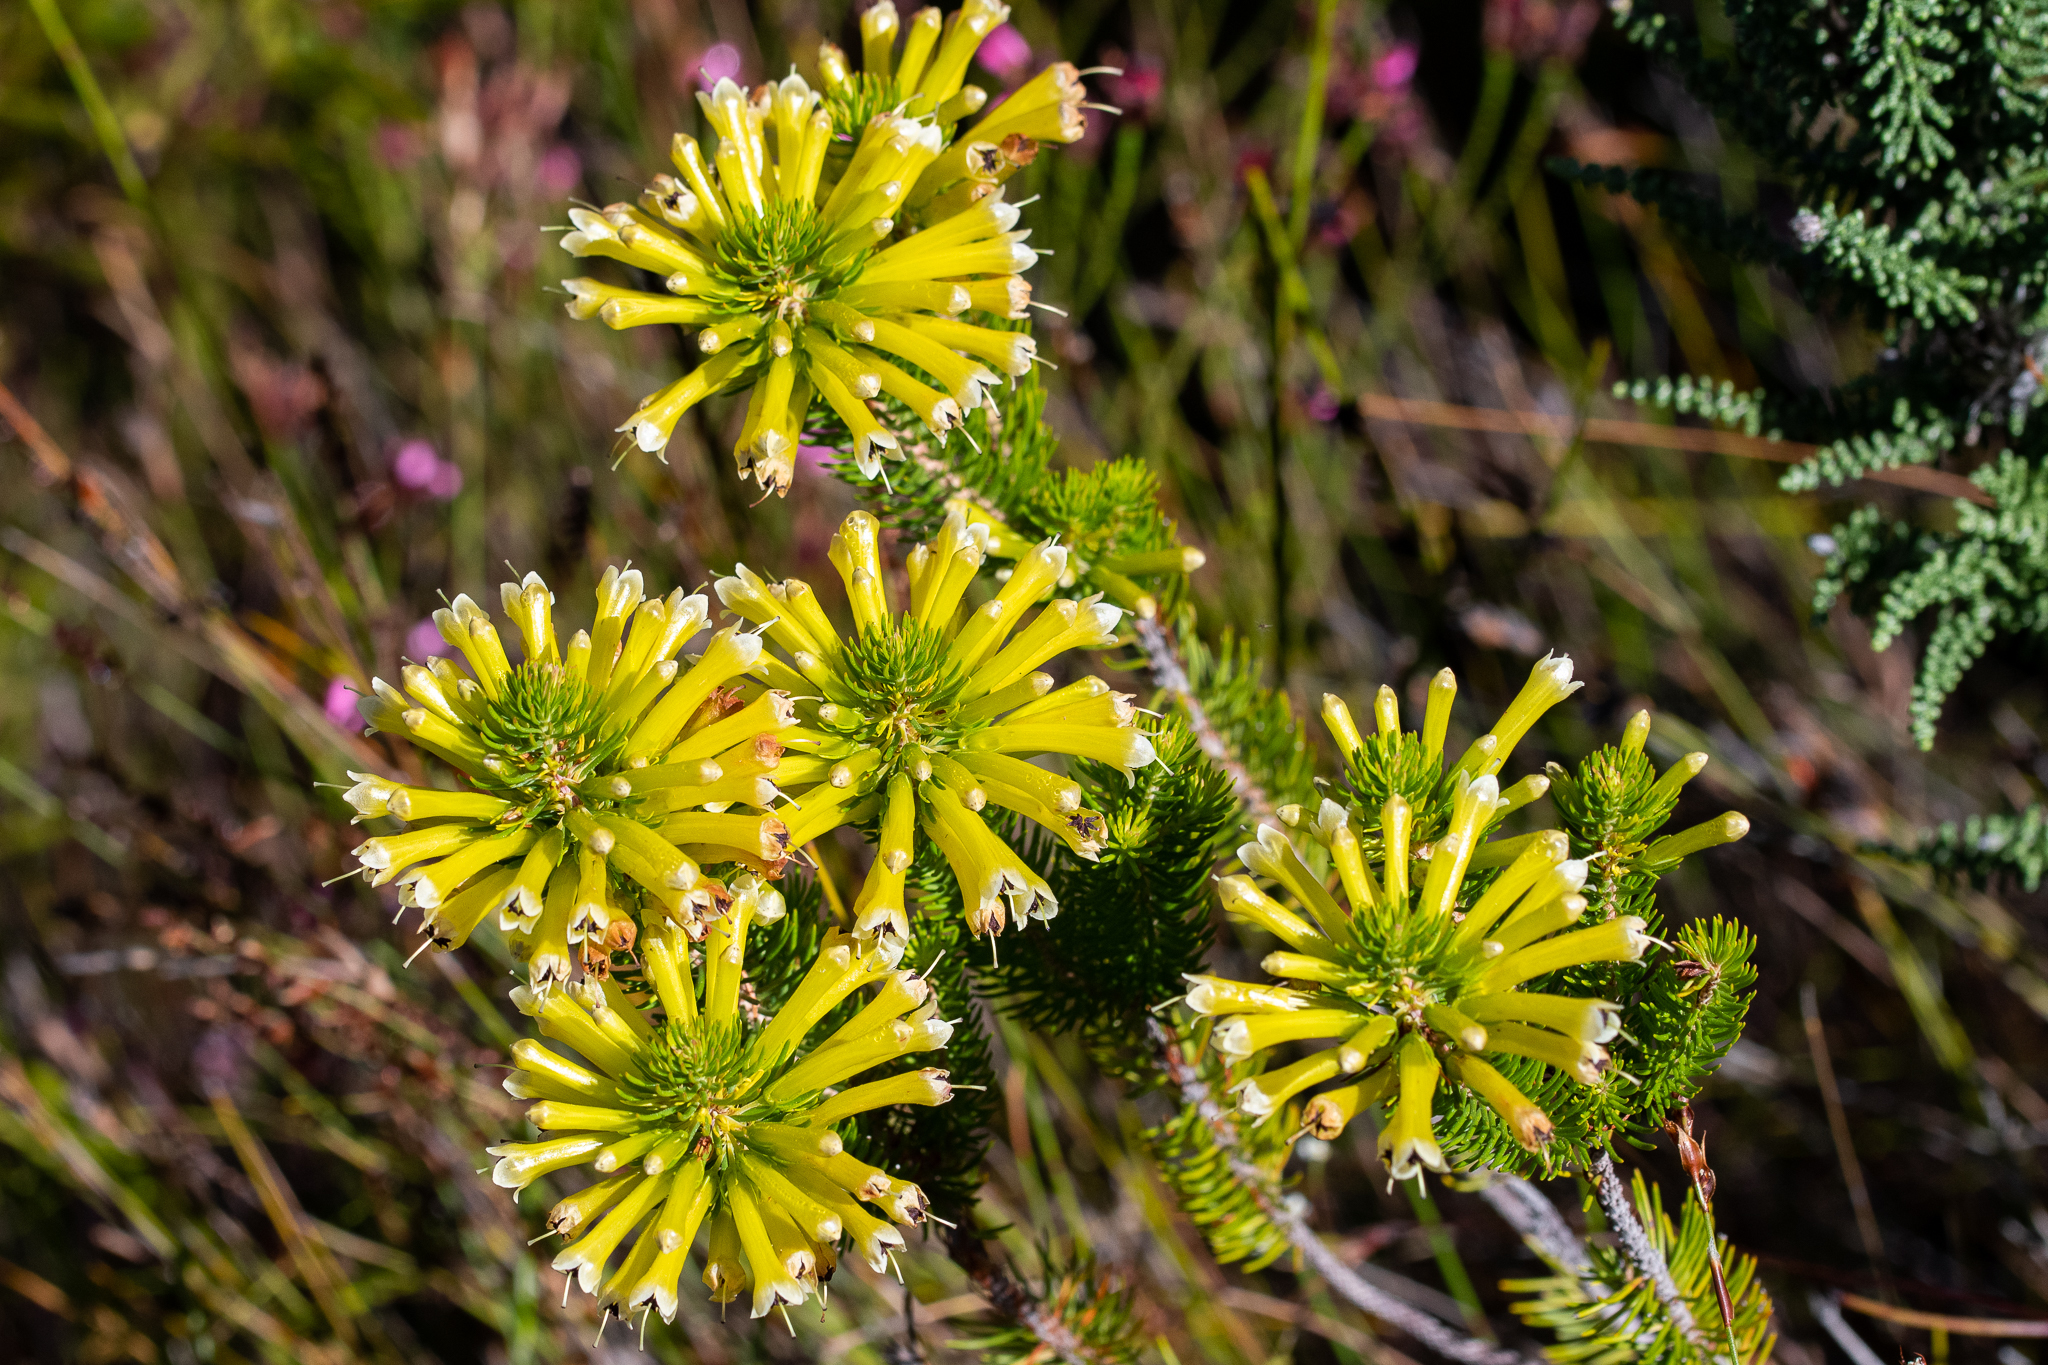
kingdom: Plantae
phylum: Tracheophyta
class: Magnoliopsida
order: Ericales
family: Ericaceae
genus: Erica
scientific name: Erica pinea
